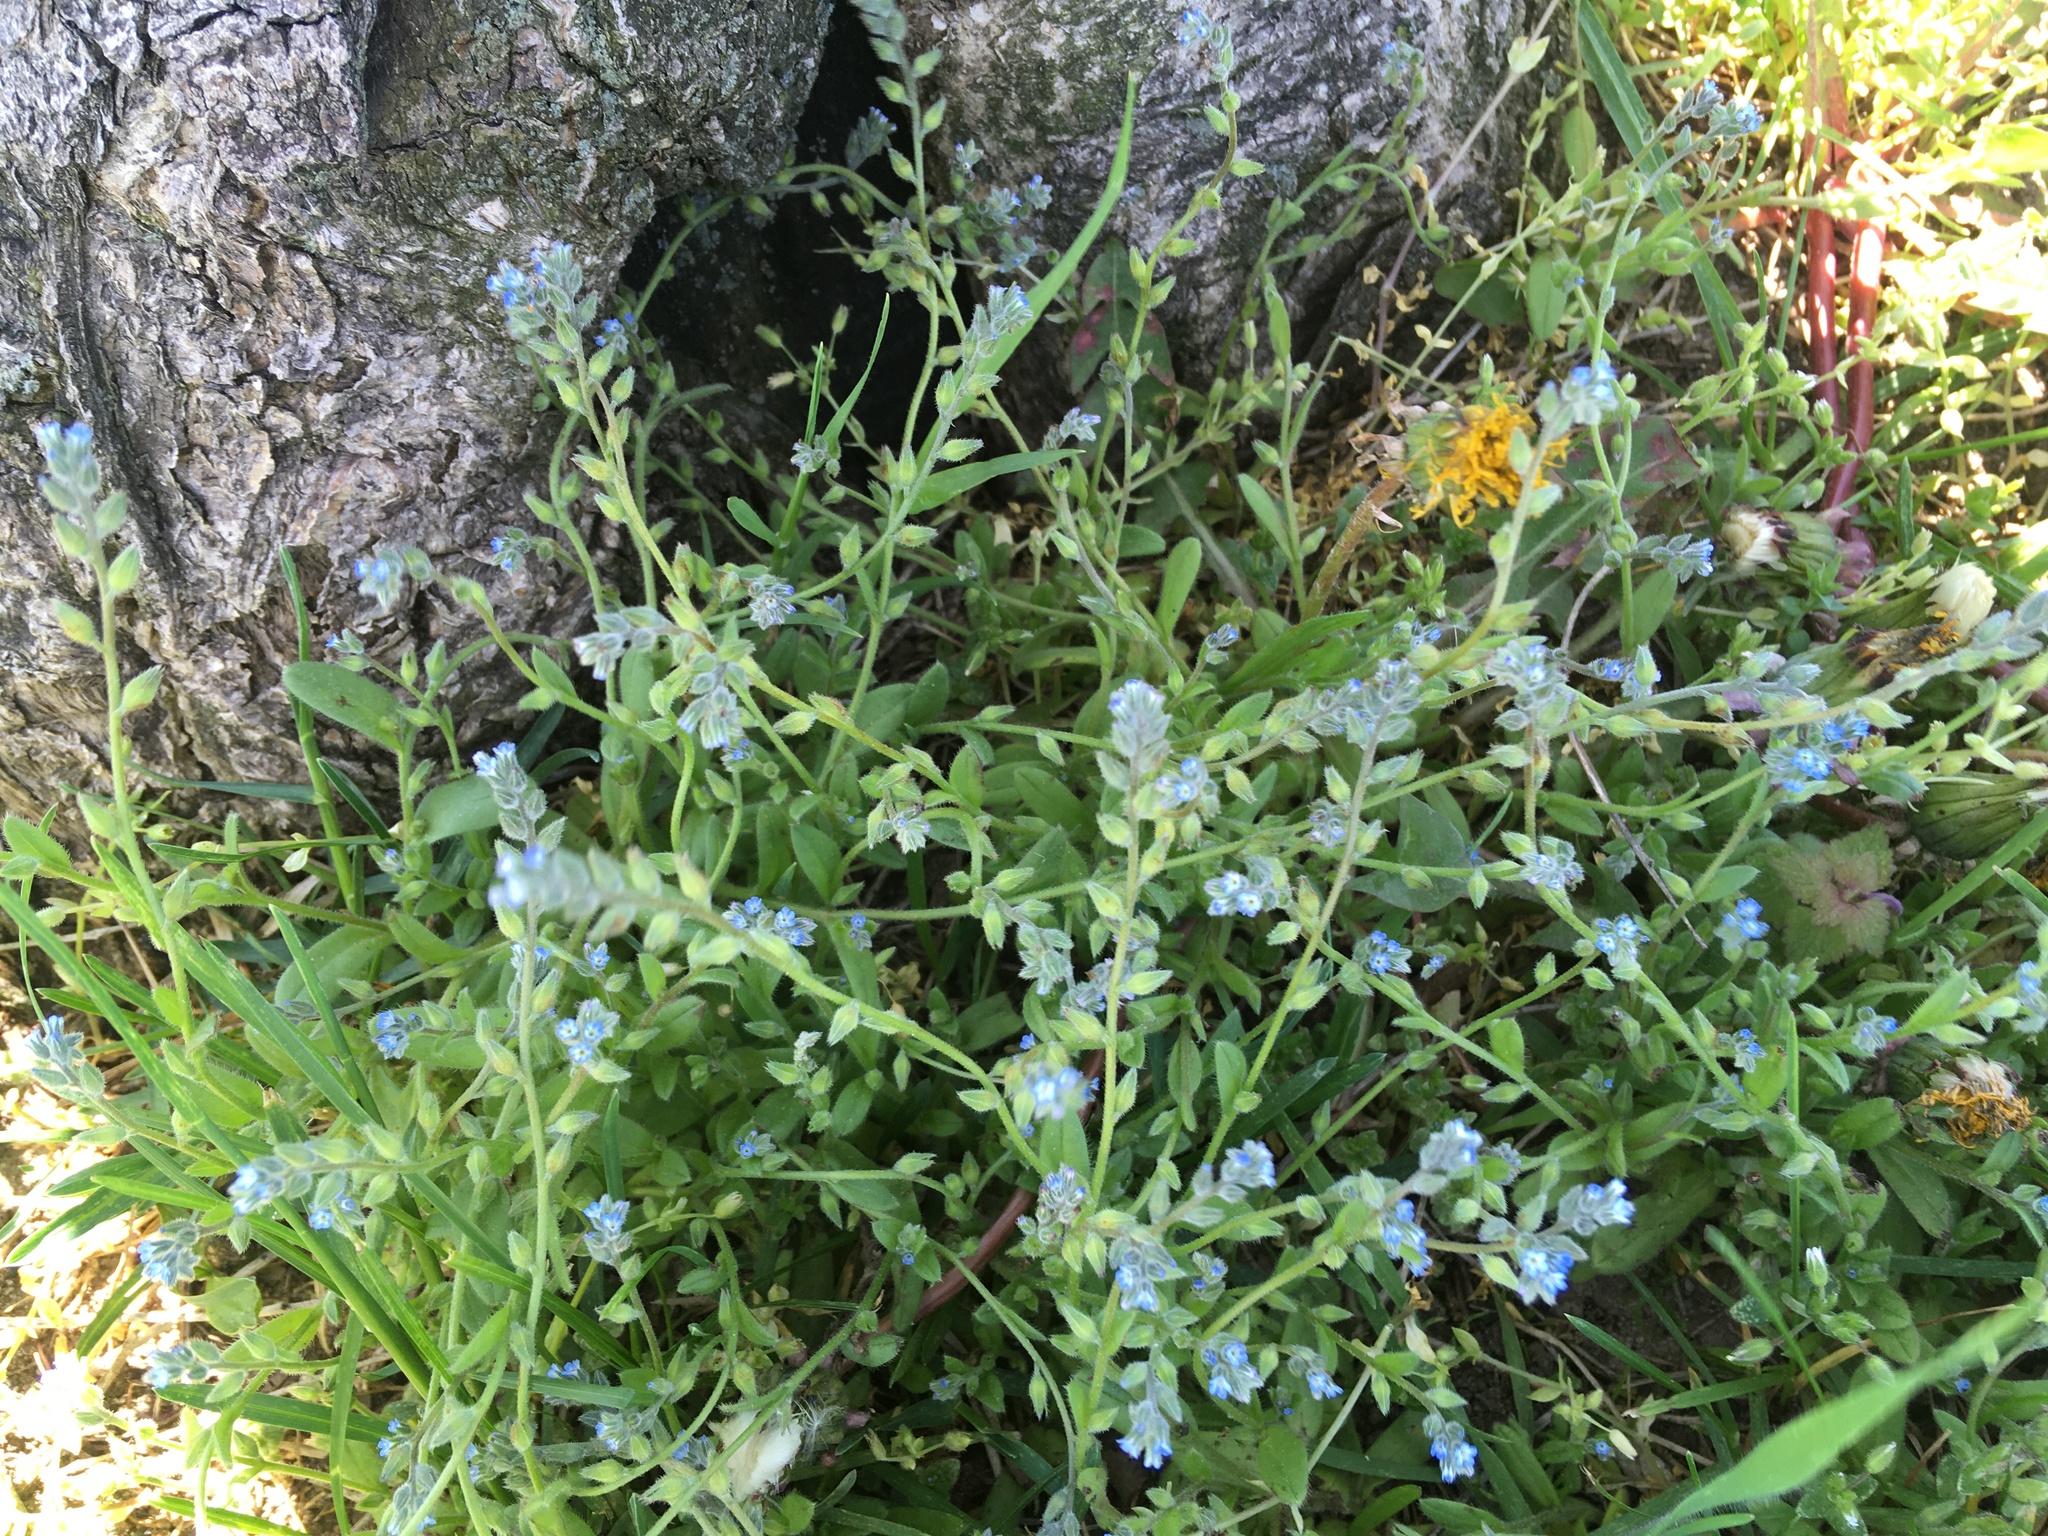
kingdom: Plantae
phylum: Tracheophyta
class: Magnoliopsida
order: Boraginales
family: Boraginaceae
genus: Myosotis
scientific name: Myosotis stricta
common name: Strict forget-me-not
